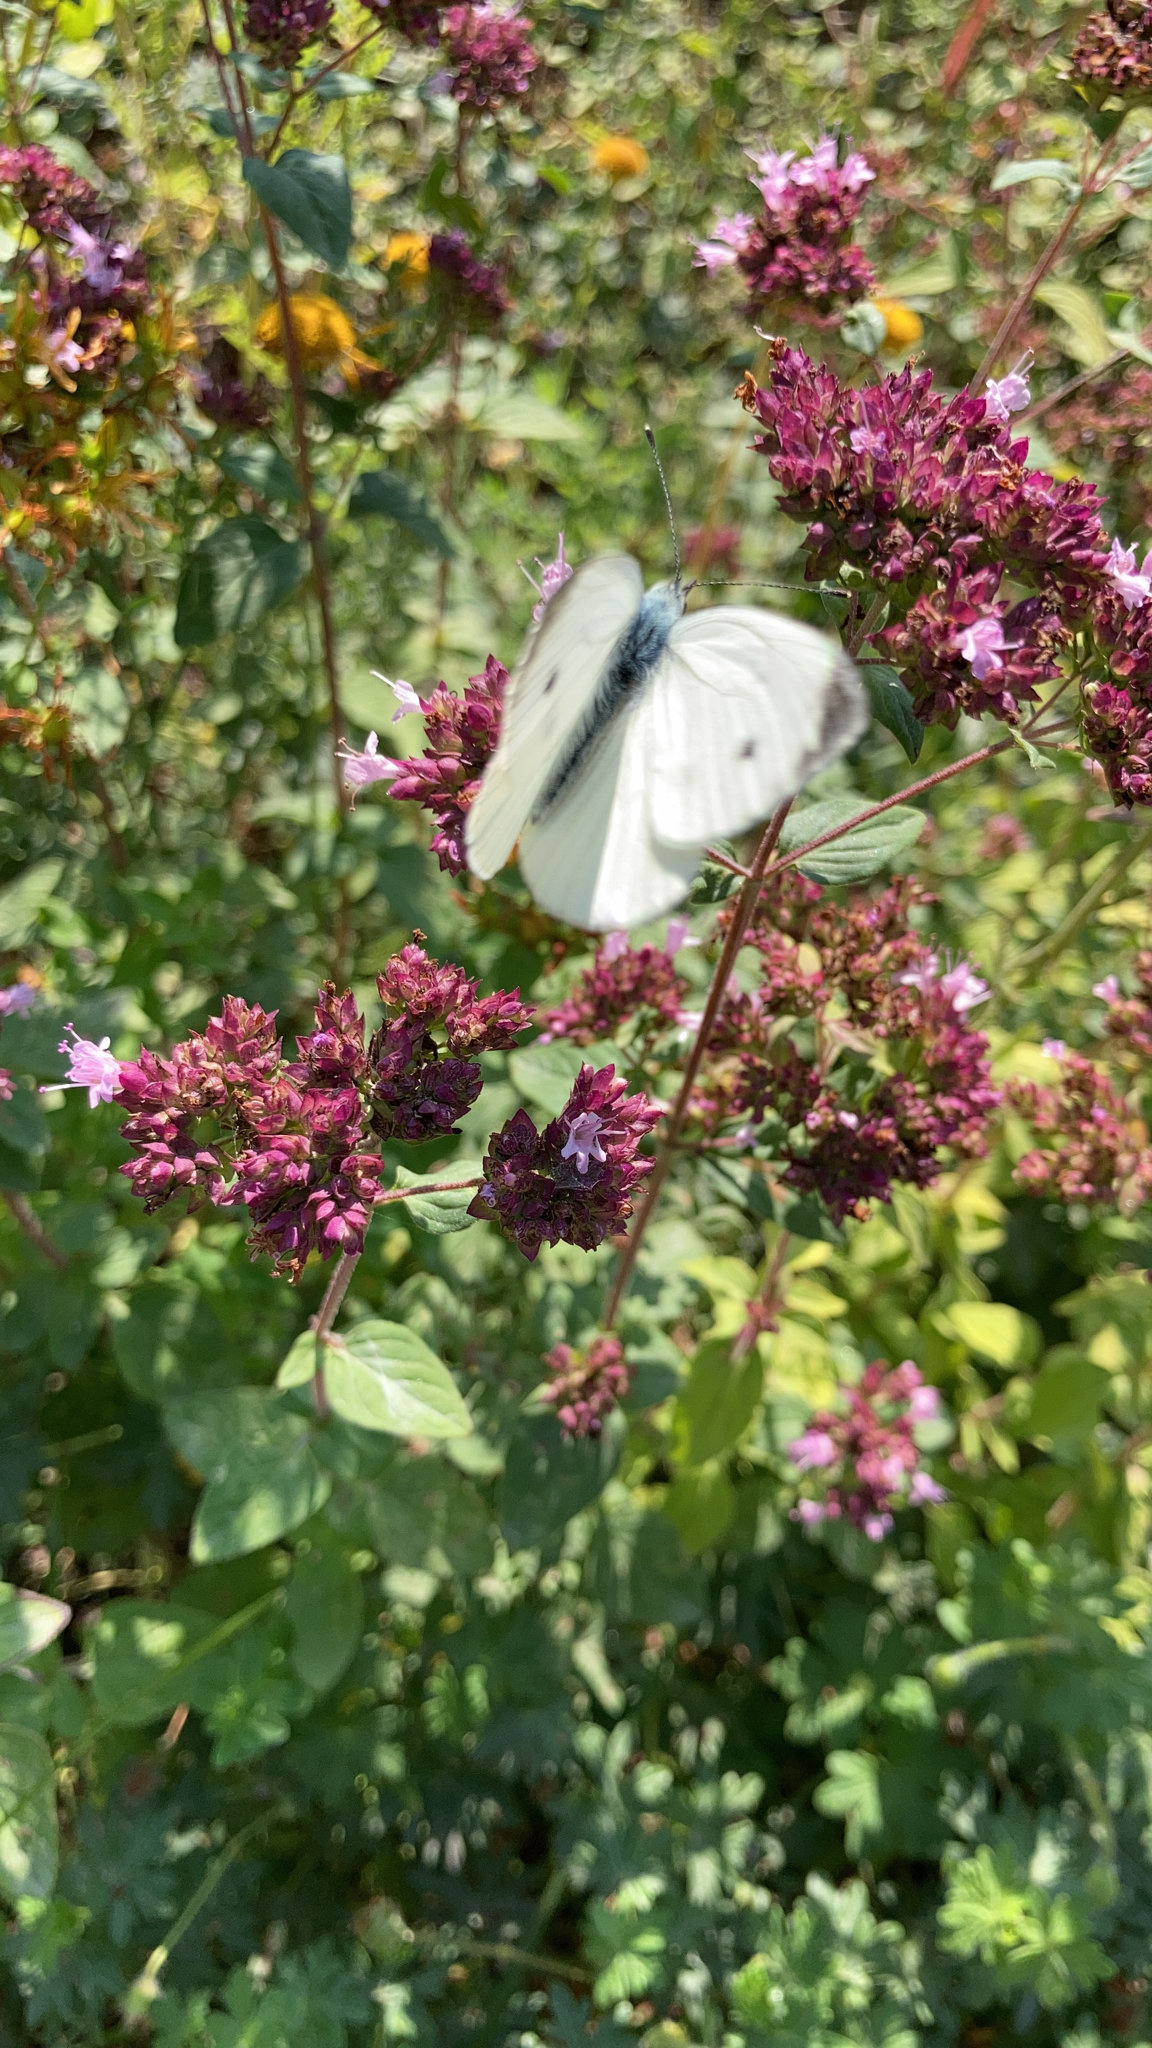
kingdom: Animalia
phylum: Arthropoda
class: Insecta
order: Lepidoptera
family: Pieridae
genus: Pieris
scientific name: Pieris napi
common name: Green-veined white
